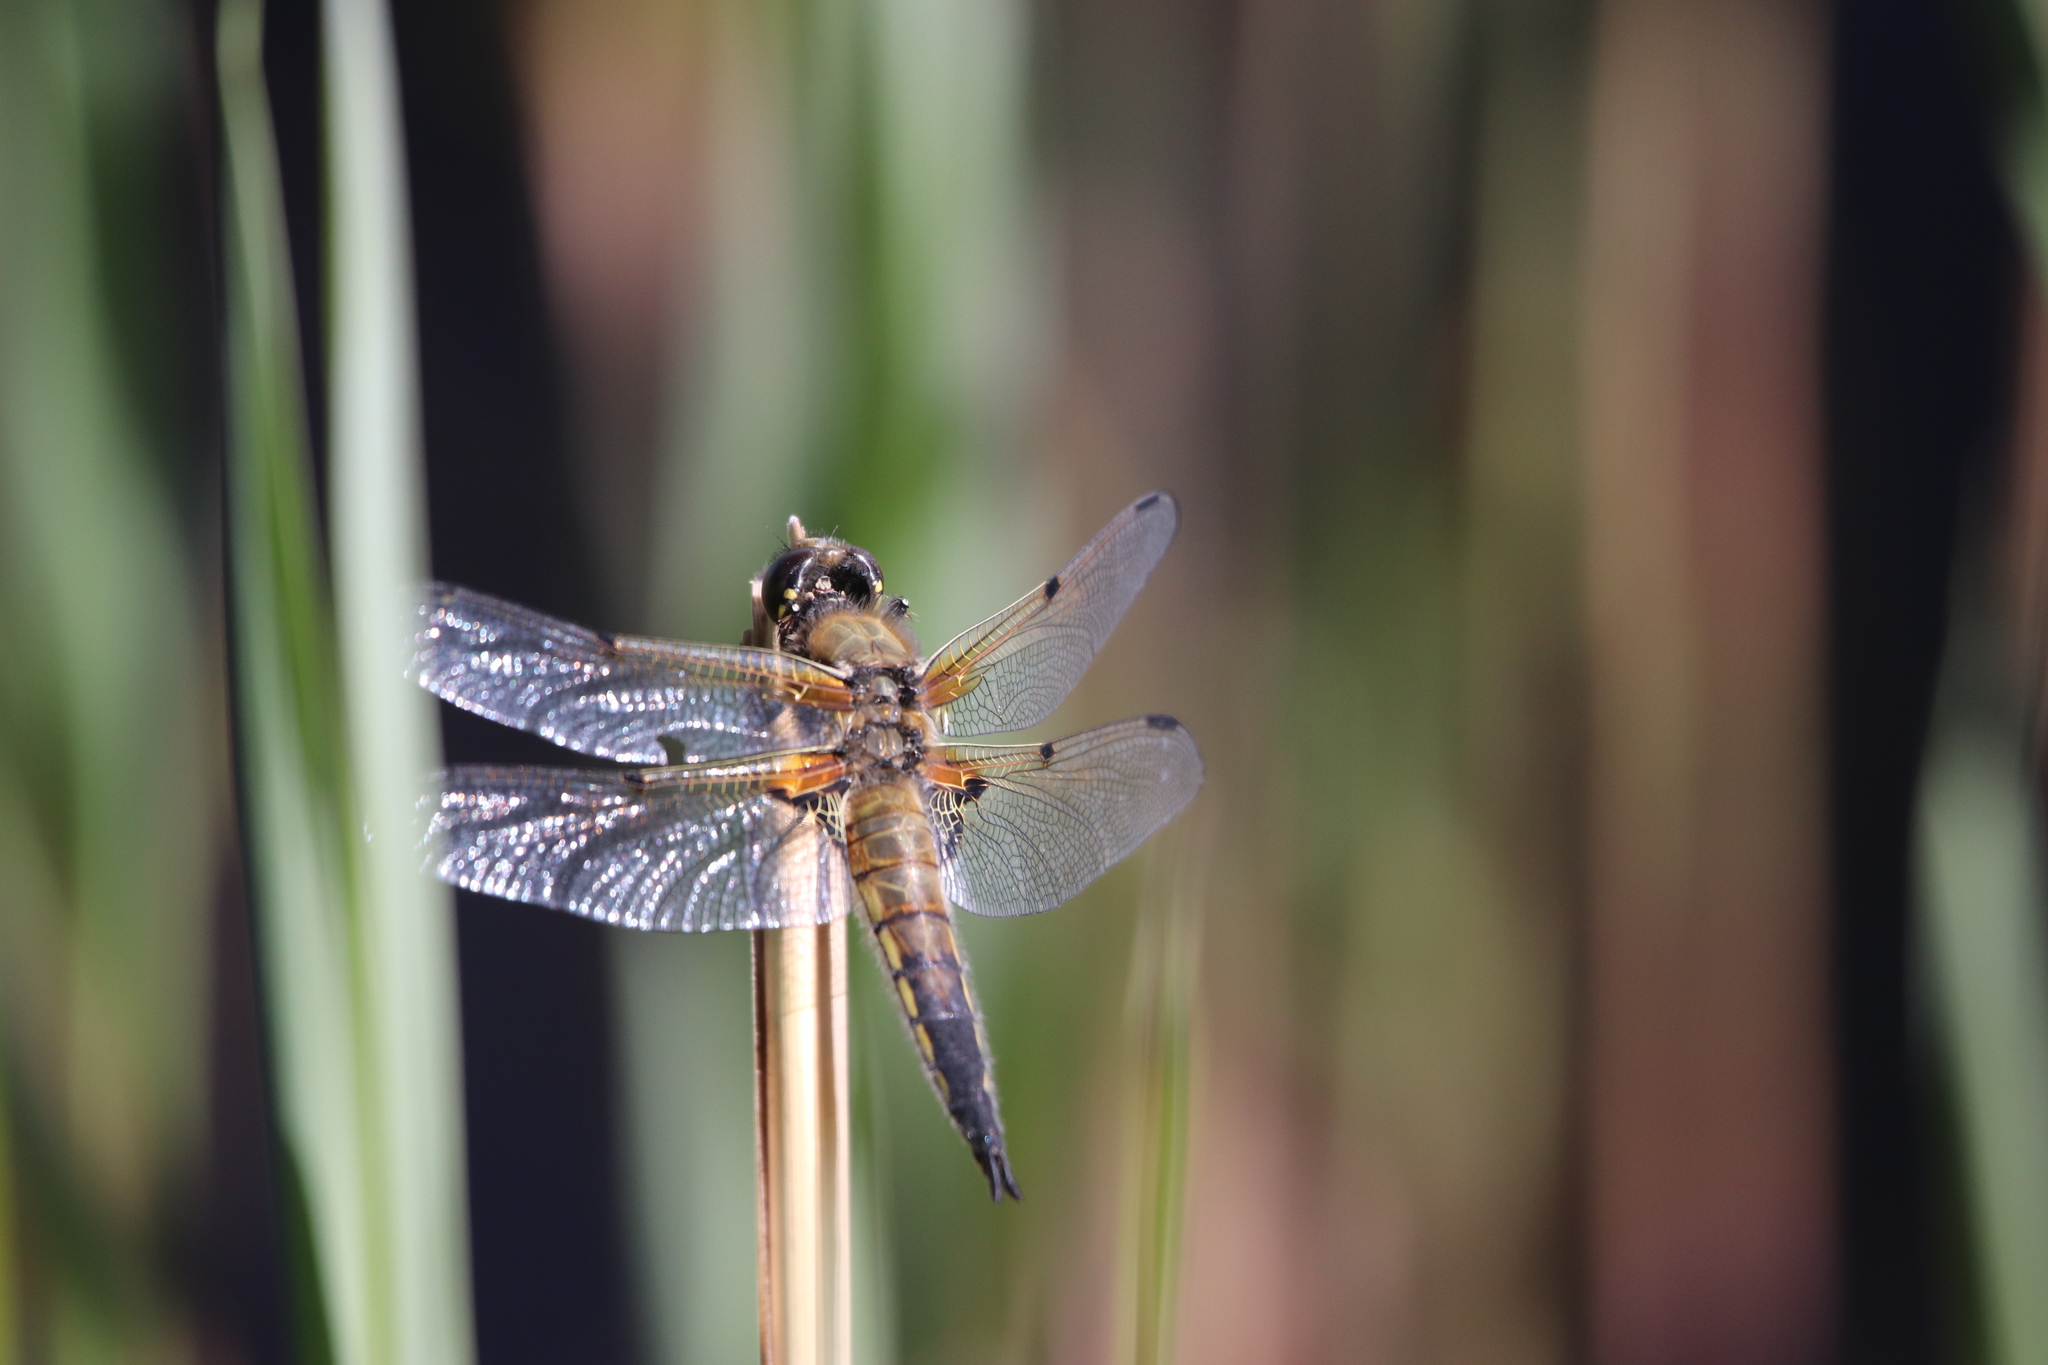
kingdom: Animalia
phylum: Arthropoda
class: Insecta
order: Odonata
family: Libellulidae
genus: Libellula
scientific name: Libellula quadrimaculata
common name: Four-spotted chaser
